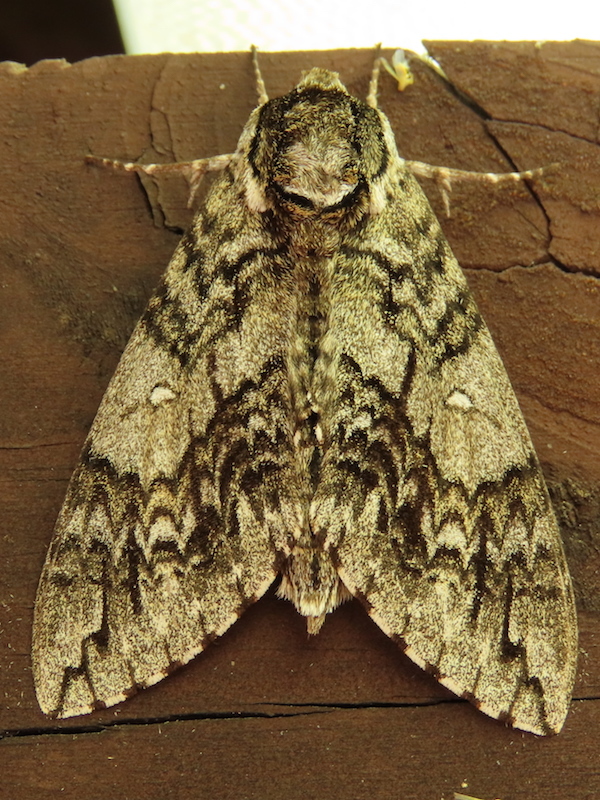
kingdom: Animalia
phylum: Arthropoda
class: Insecta
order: Lepidoptera
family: Sphingidae
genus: Ceratomia
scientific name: Ceratomia undulosa
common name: Waved sphinx
